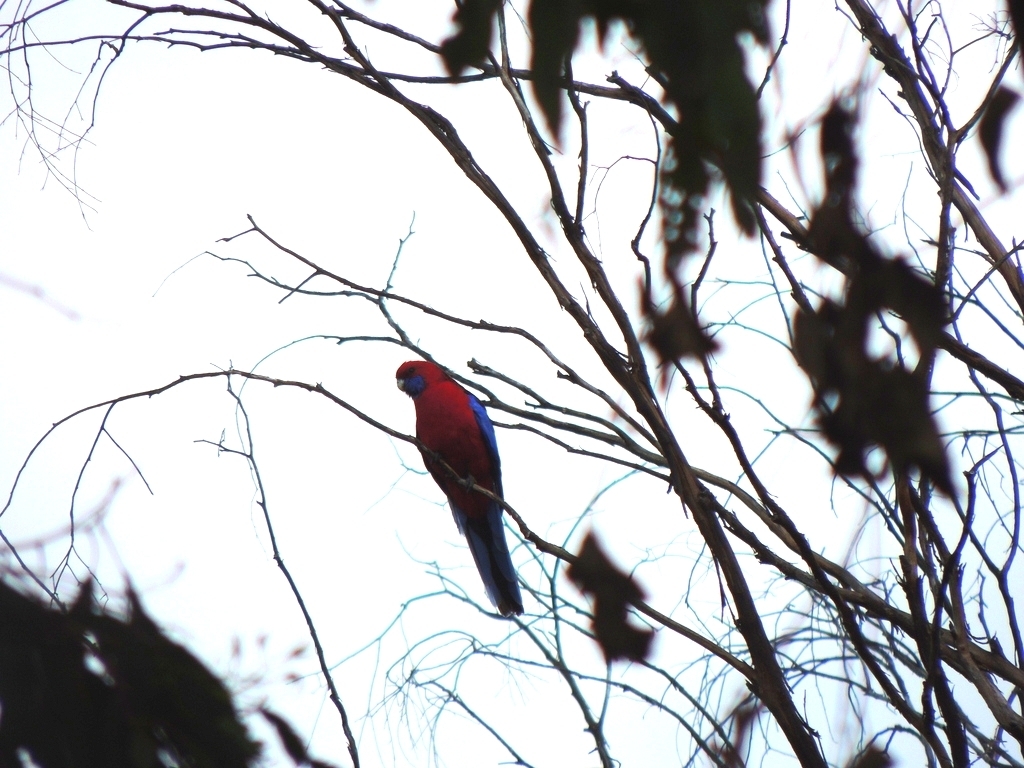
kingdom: Animalia
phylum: Chordata
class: Aves
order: Psittaciformes
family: Psittacidae
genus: Platycercus
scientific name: Platycercus elegans
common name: Crimson rosella
